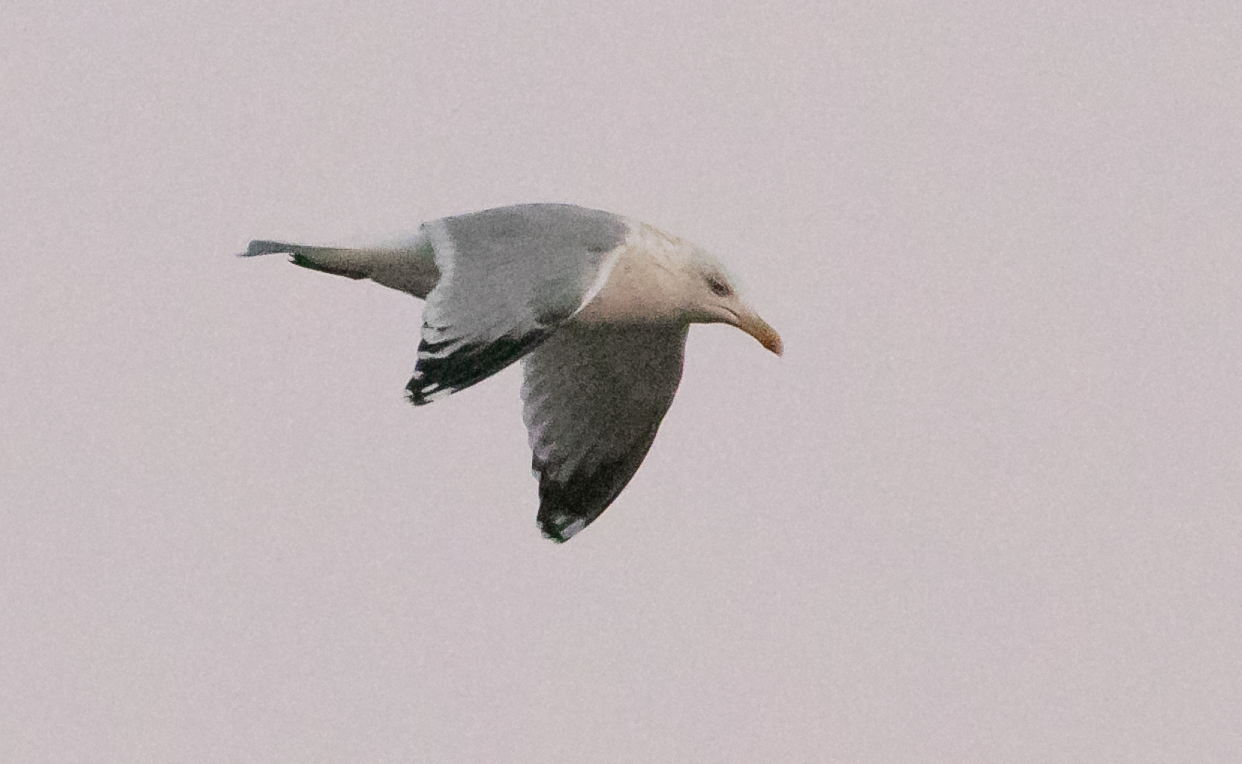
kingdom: Animalia
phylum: Chordata
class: Aves
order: Charadriiformes
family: Laridae
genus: Larus
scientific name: Larus michahellis
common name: Yellow-legged gull
